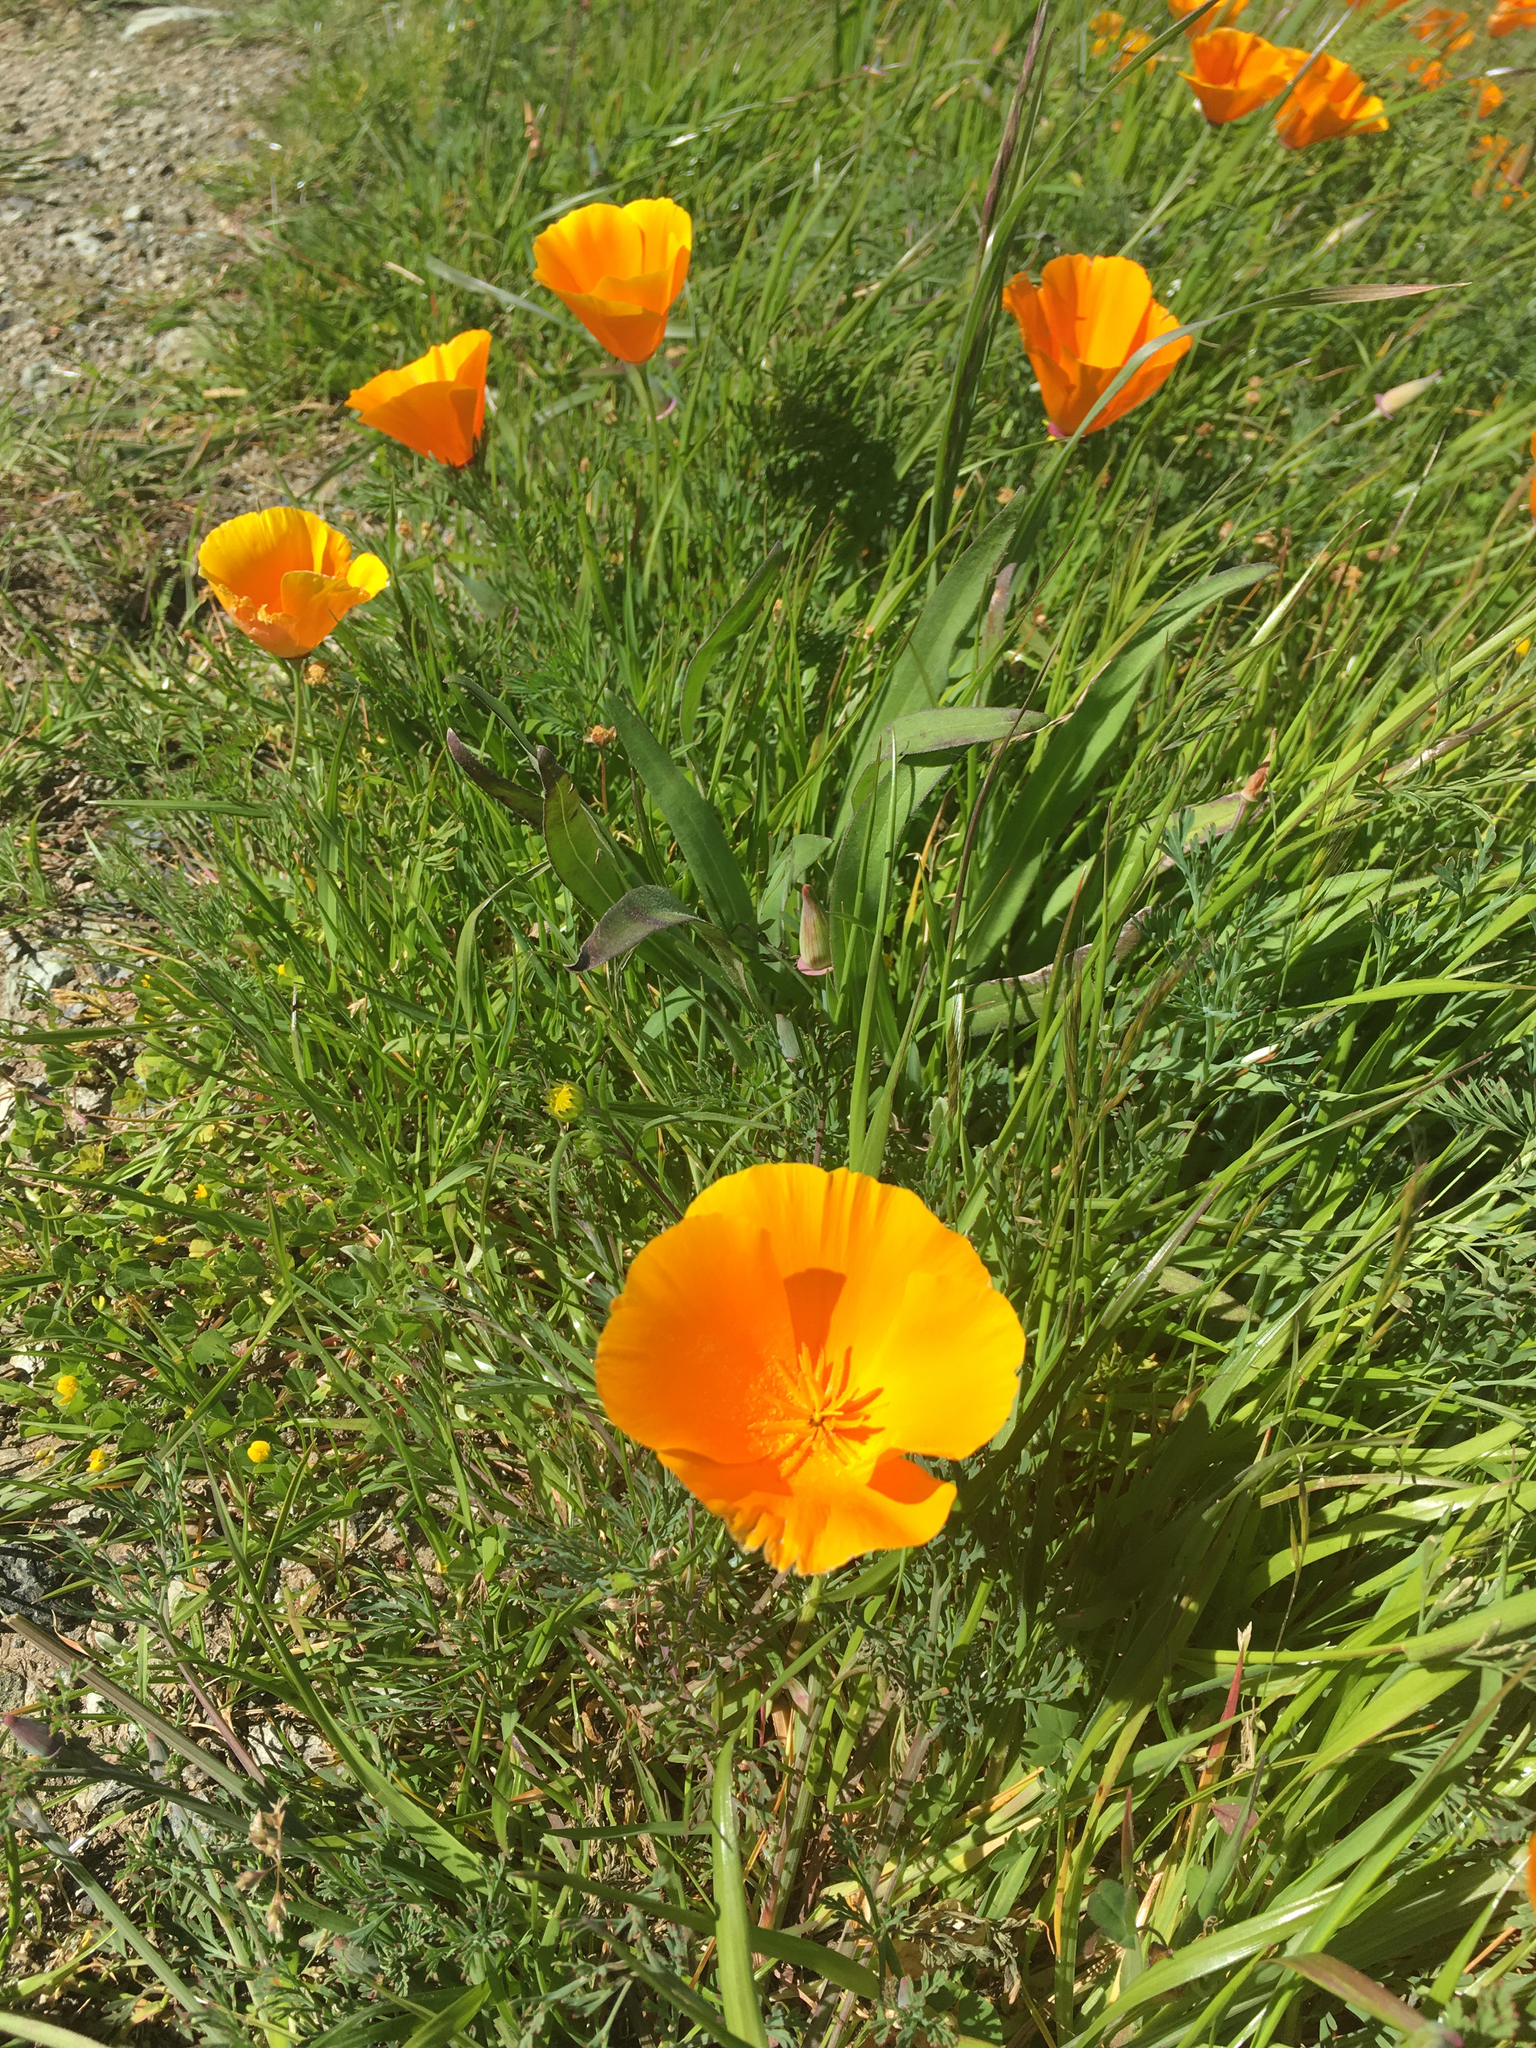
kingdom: Plantae
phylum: Tracheophyta
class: Magnoliopsida
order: Ranunculales
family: Papaveraceae
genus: Eschscholzia
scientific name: Eschscholzia californica
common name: California poppy
